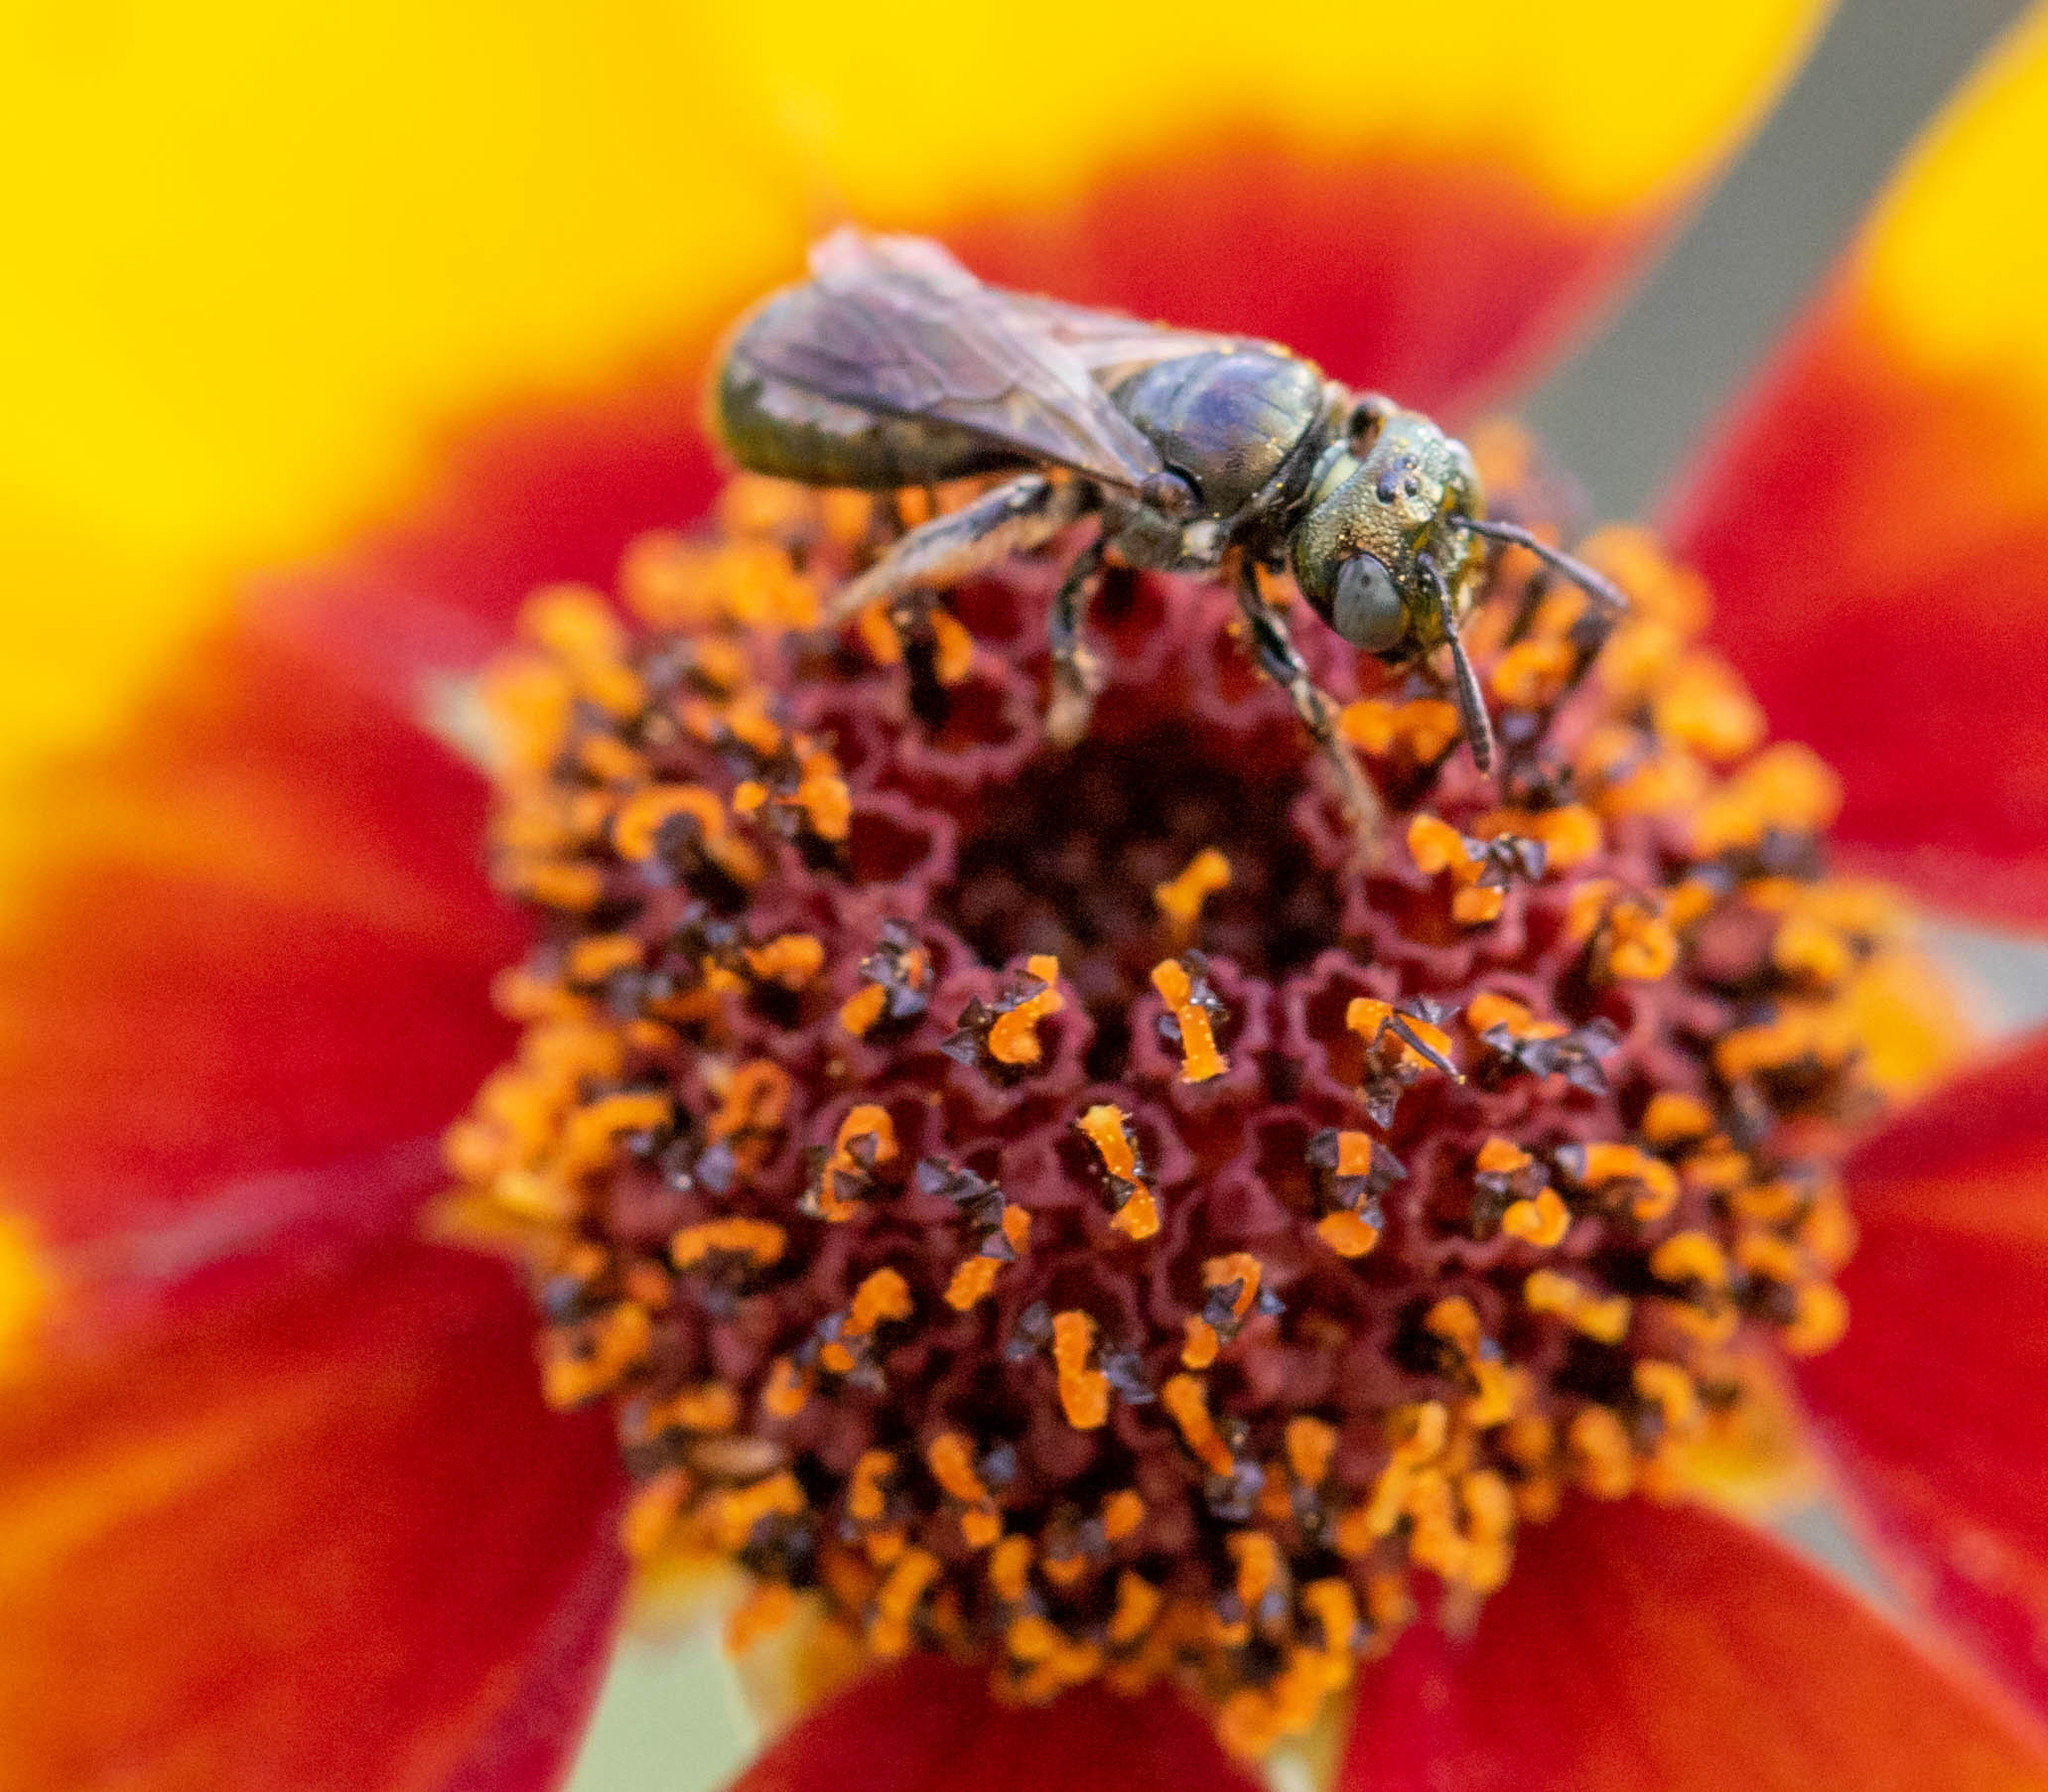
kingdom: Animalia
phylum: Arthropoda
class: Insecta
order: Hymenoptera
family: Apidae
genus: Ceratina
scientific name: Ceratina strenua
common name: Nimble carpenter bee
